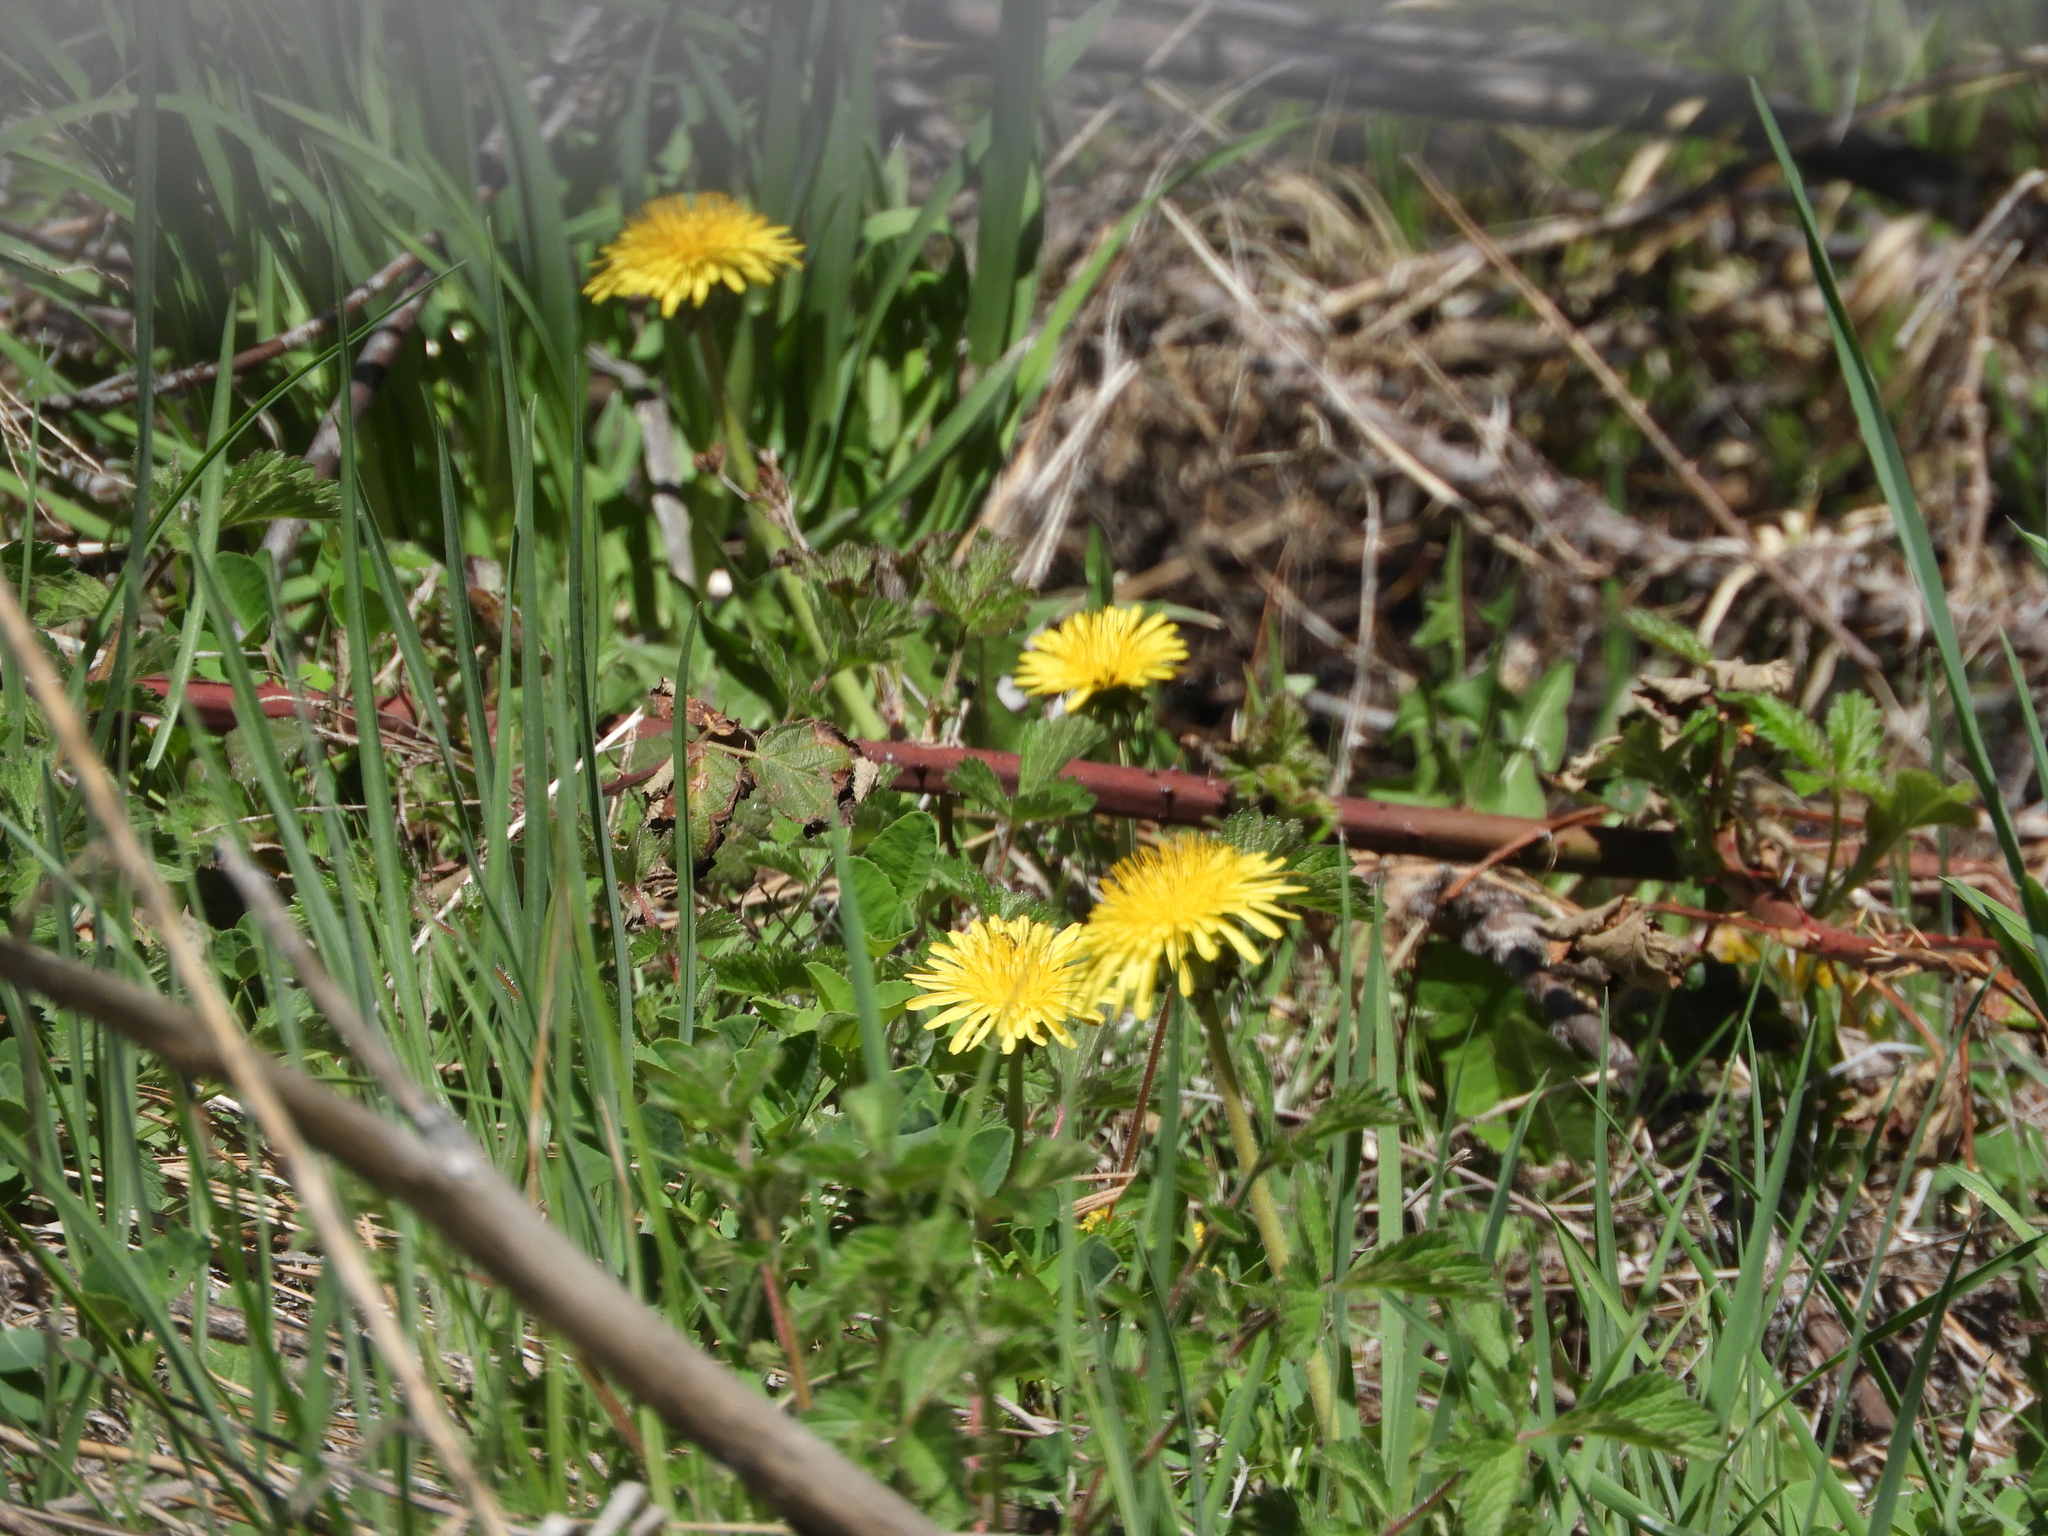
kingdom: Plantae
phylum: Tracheophyta
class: Magnoliopsida
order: Asterales
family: Asteraceae
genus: Taraxacum
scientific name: Taraxacum officinale
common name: Common dandelion
